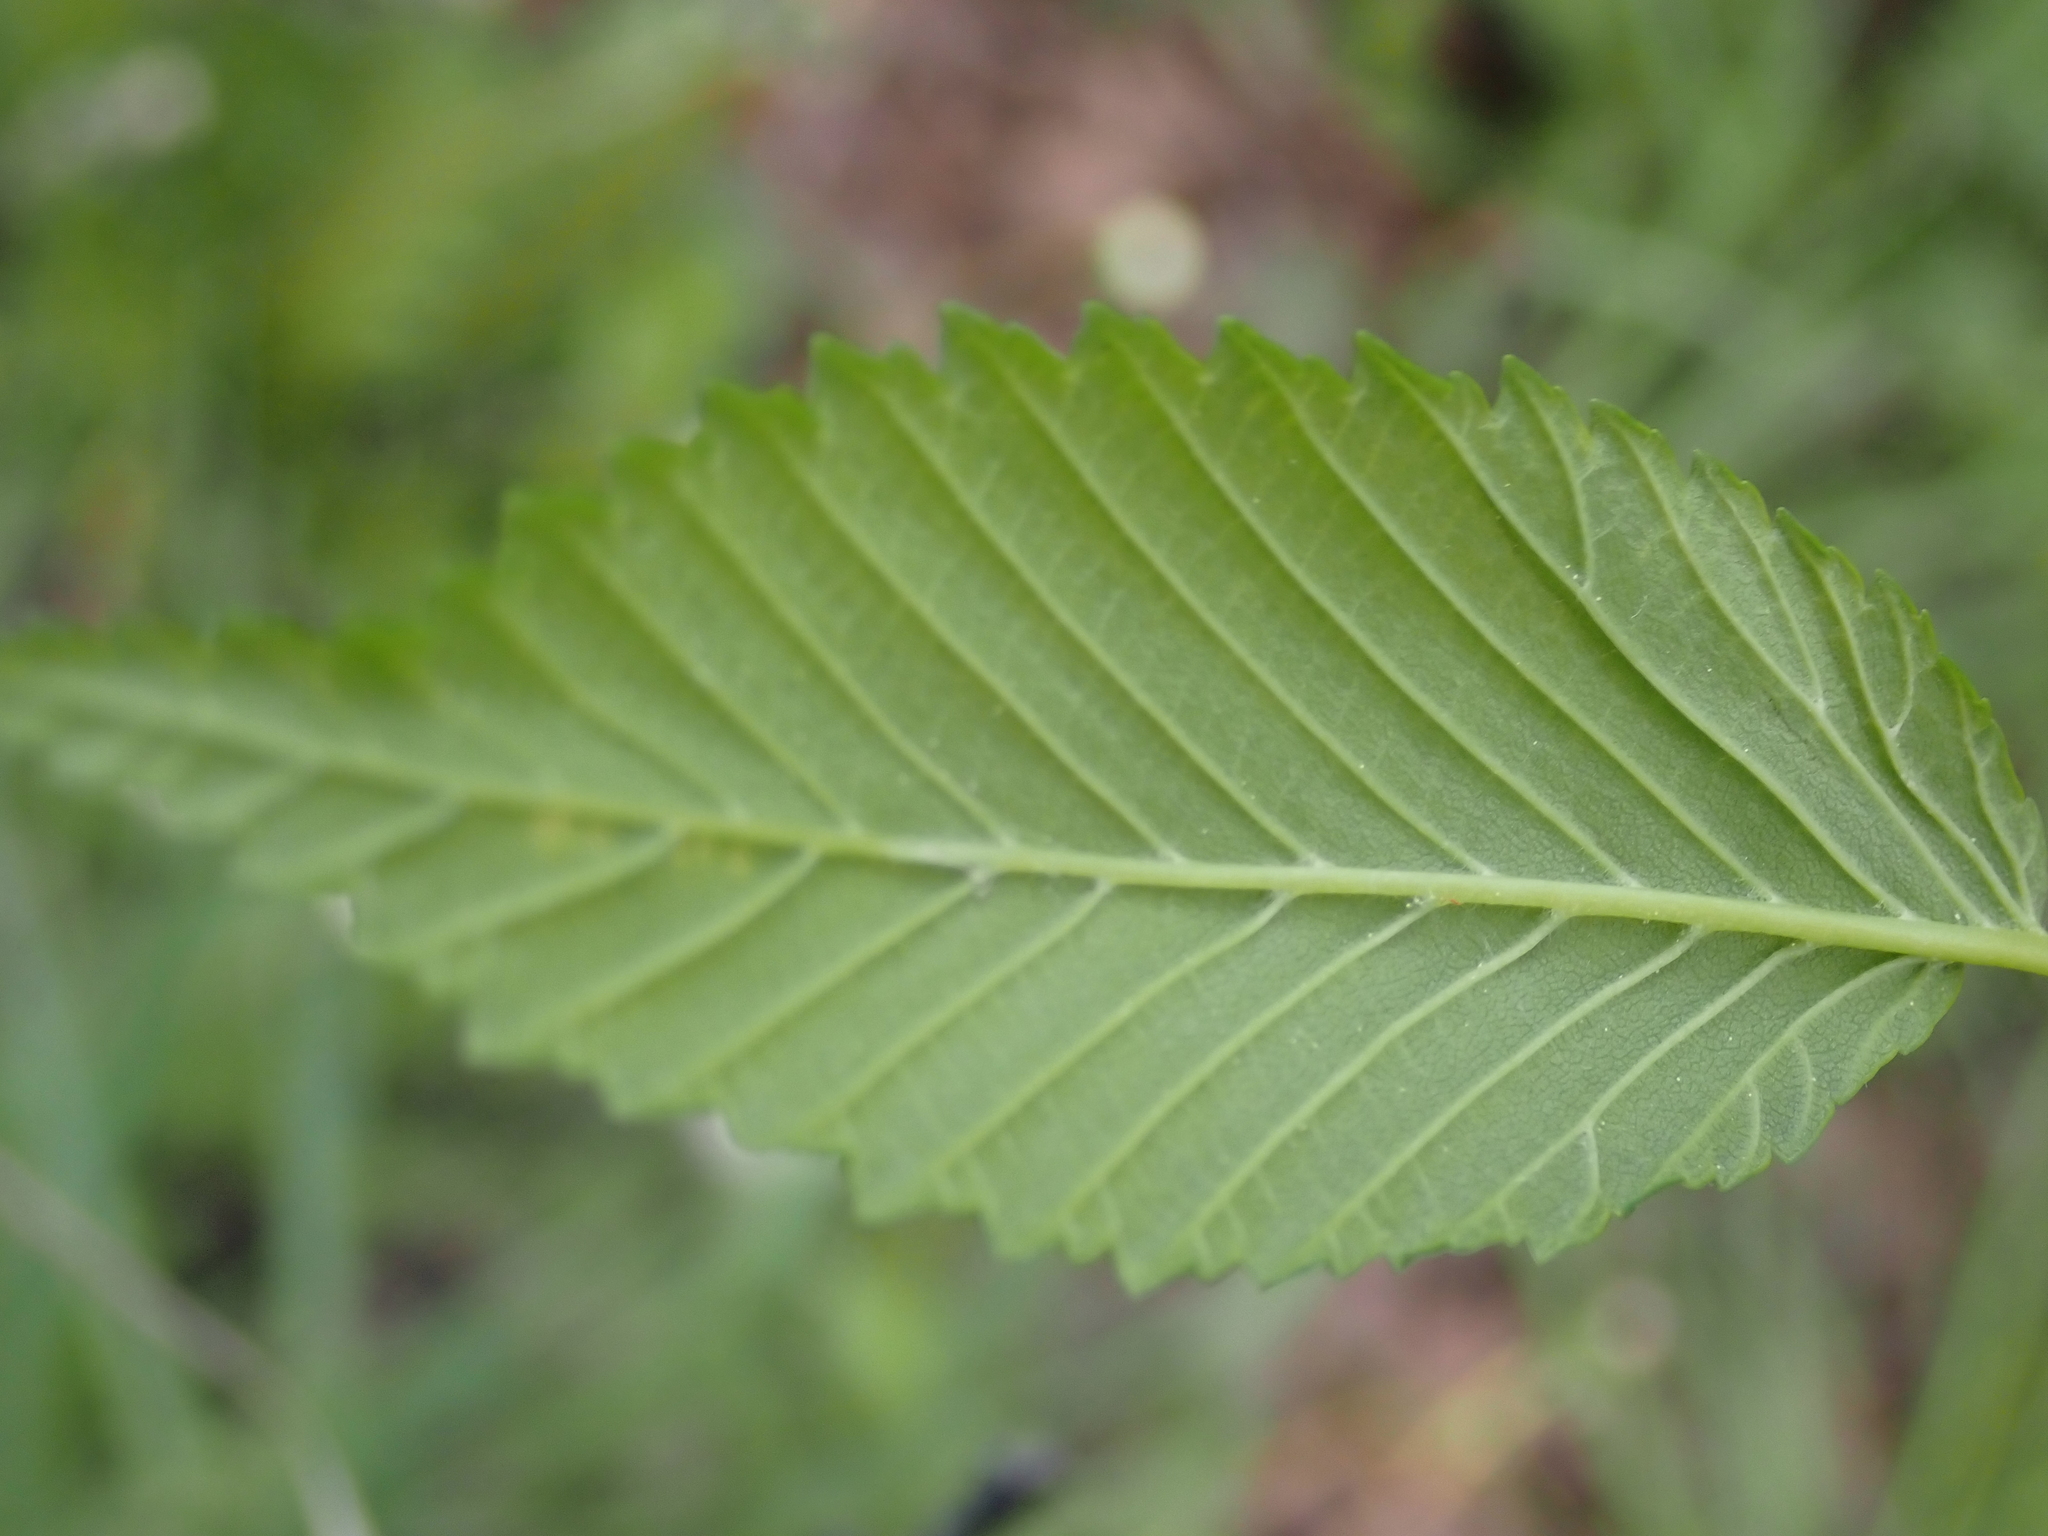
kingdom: Plantae
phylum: Tracheophyta
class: Magnoliopsida
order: Rosales
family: Ulmaceae
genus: Ulmus
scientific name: Ulmus americana
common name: American elm
